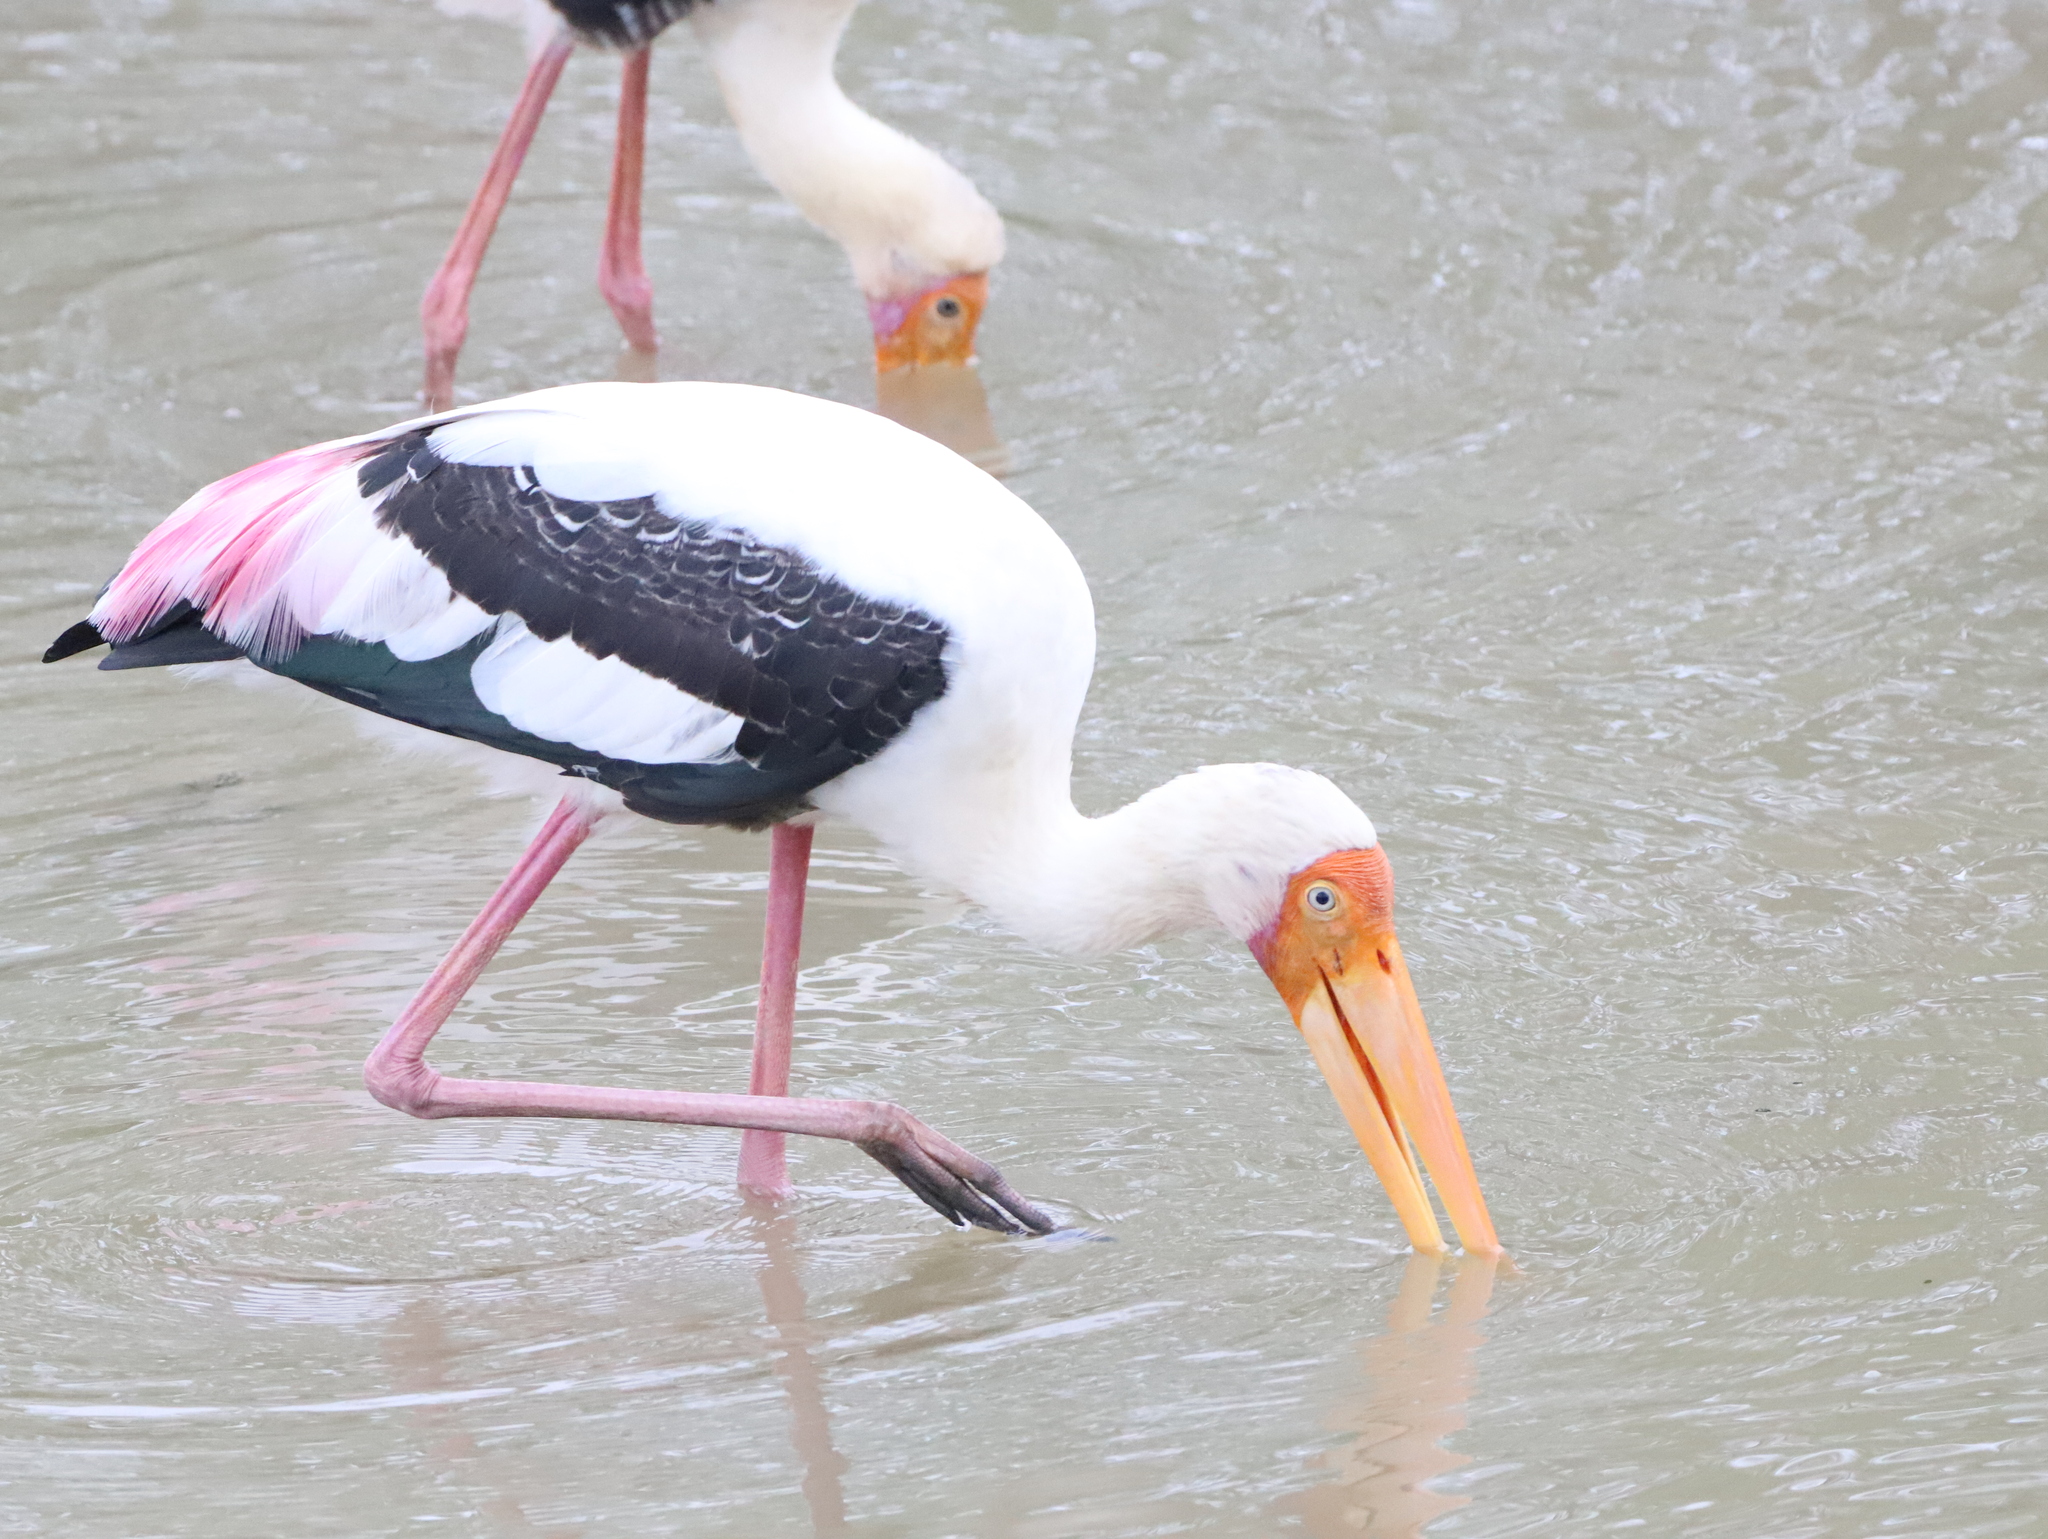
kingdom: Animalia
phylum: Chordata
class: Aves
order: Ciconiiformes
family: Ciconiidae
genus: Mycteria
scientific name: Mycteria leucocephala
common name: Painted stork
